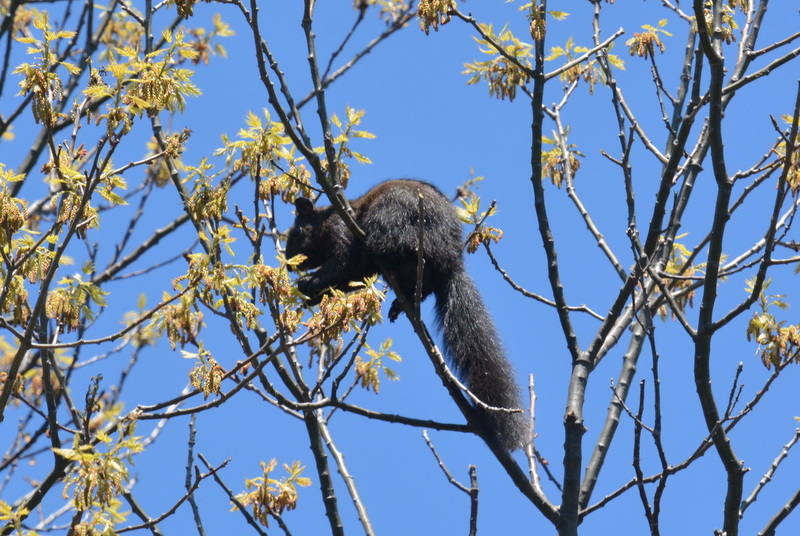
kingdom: Animalia
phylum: Chordata
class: Mammalia
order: Rodentia
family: Sciuridae
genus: Sciurus
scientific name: Sciurus carolinensis
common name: Eastern gray squirrel
